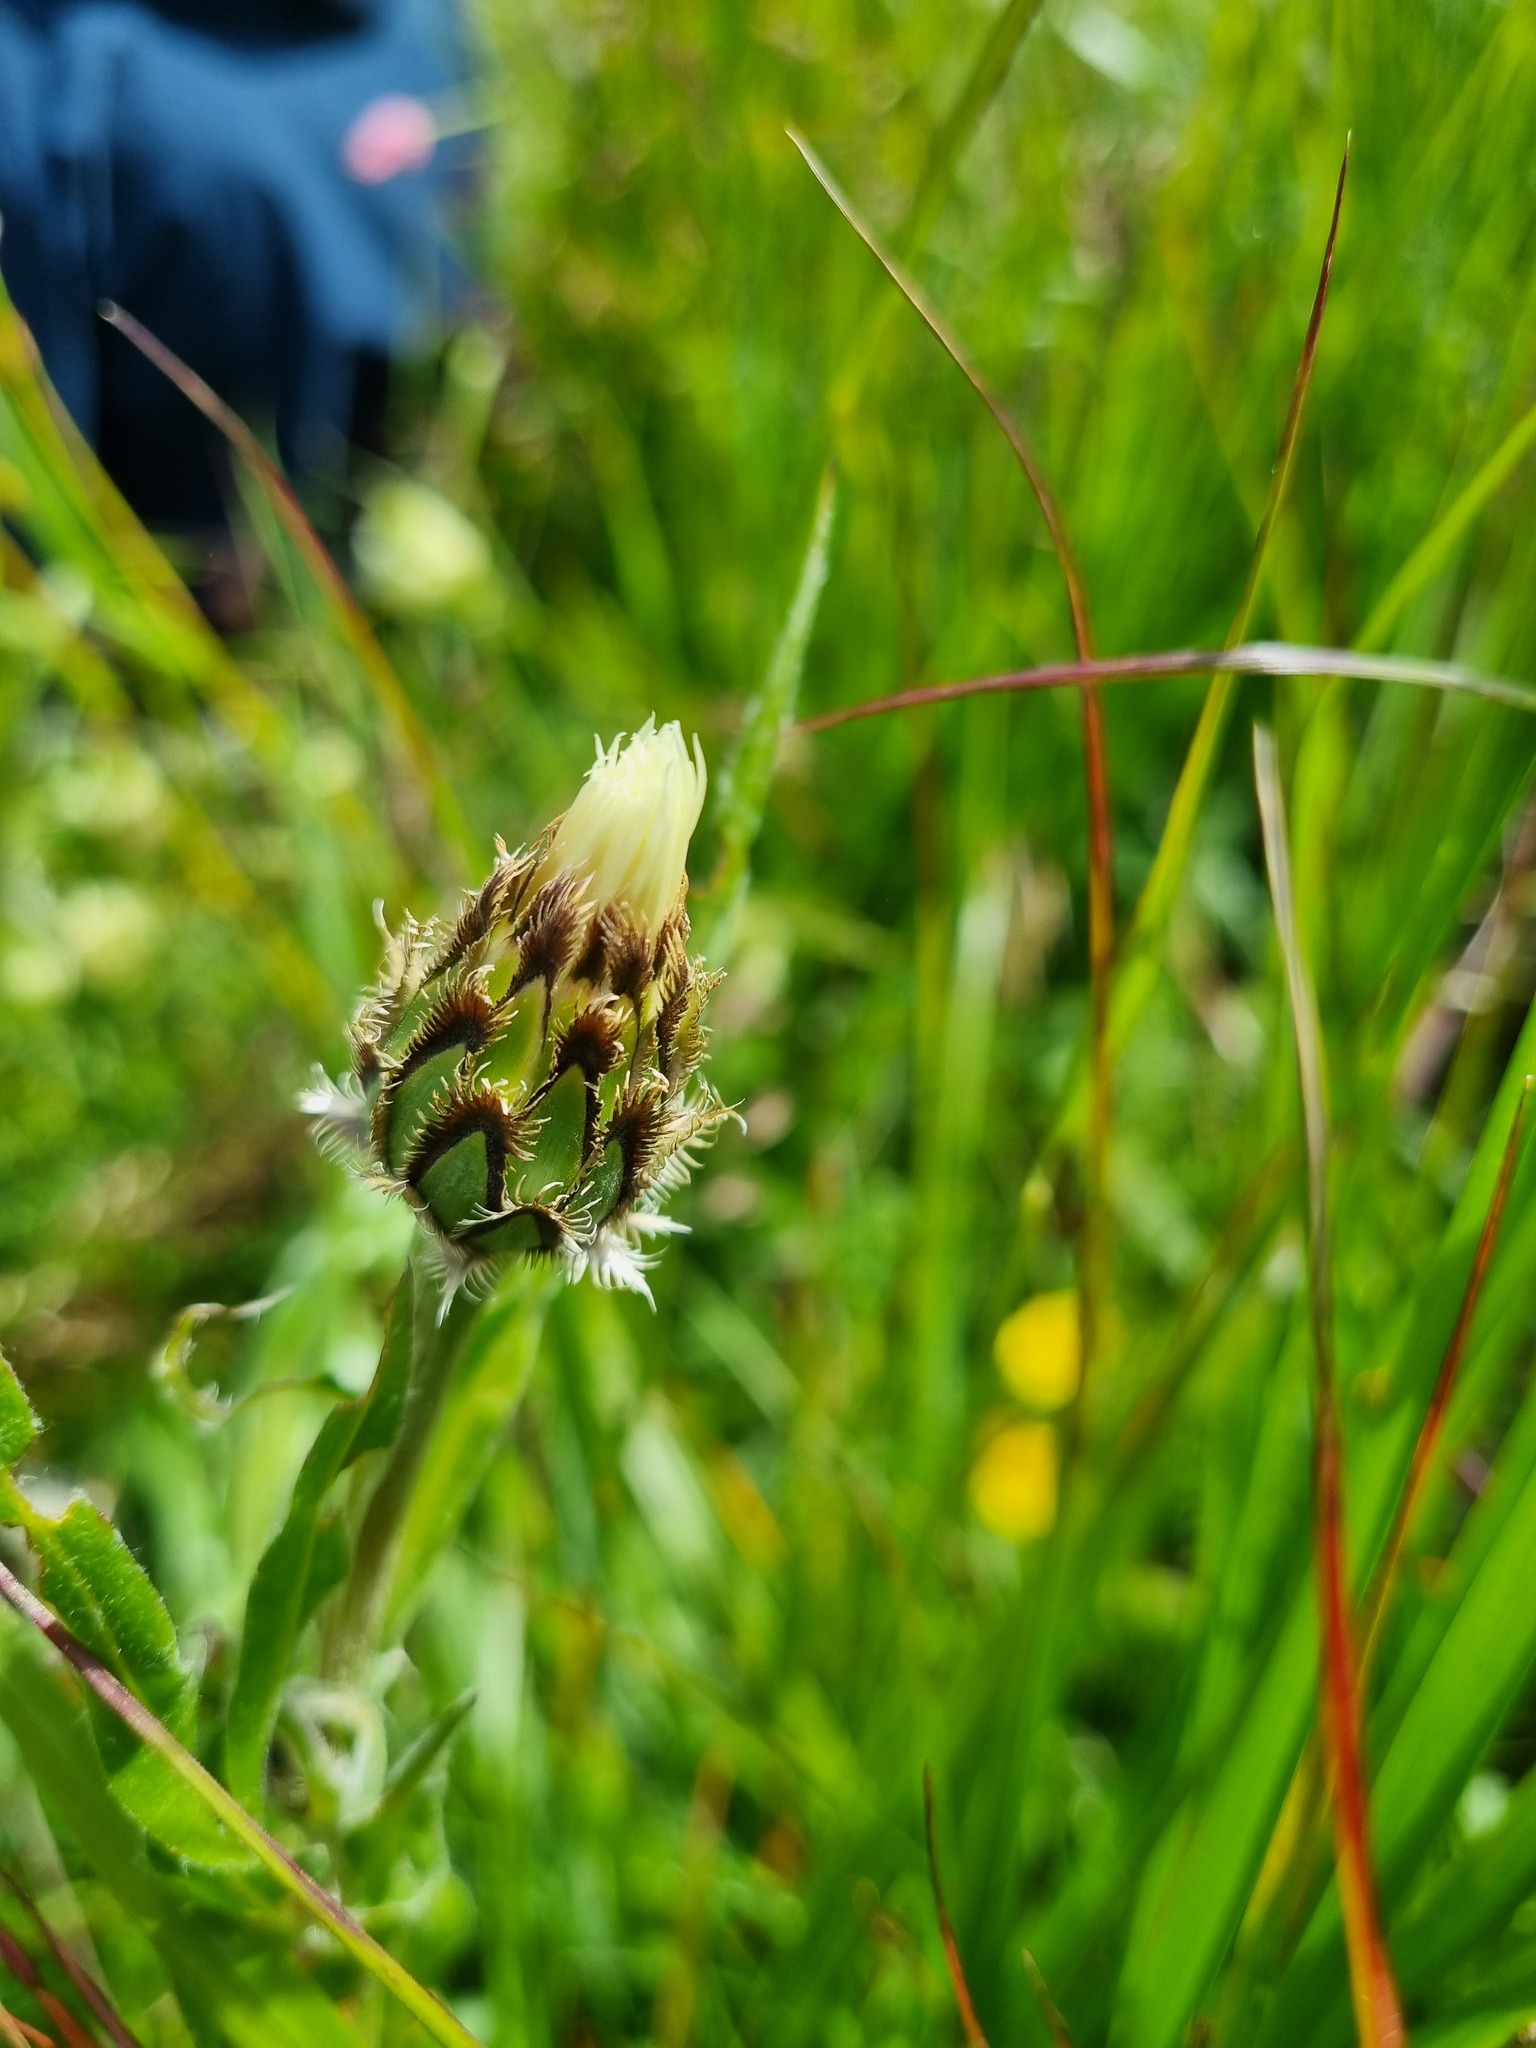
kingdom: Plantae
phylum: Tracheophyta
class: Magnoliopsida
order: Asterales
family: Asteraceae
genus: Centaurea
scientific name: Centaurea cheiranthifolia
